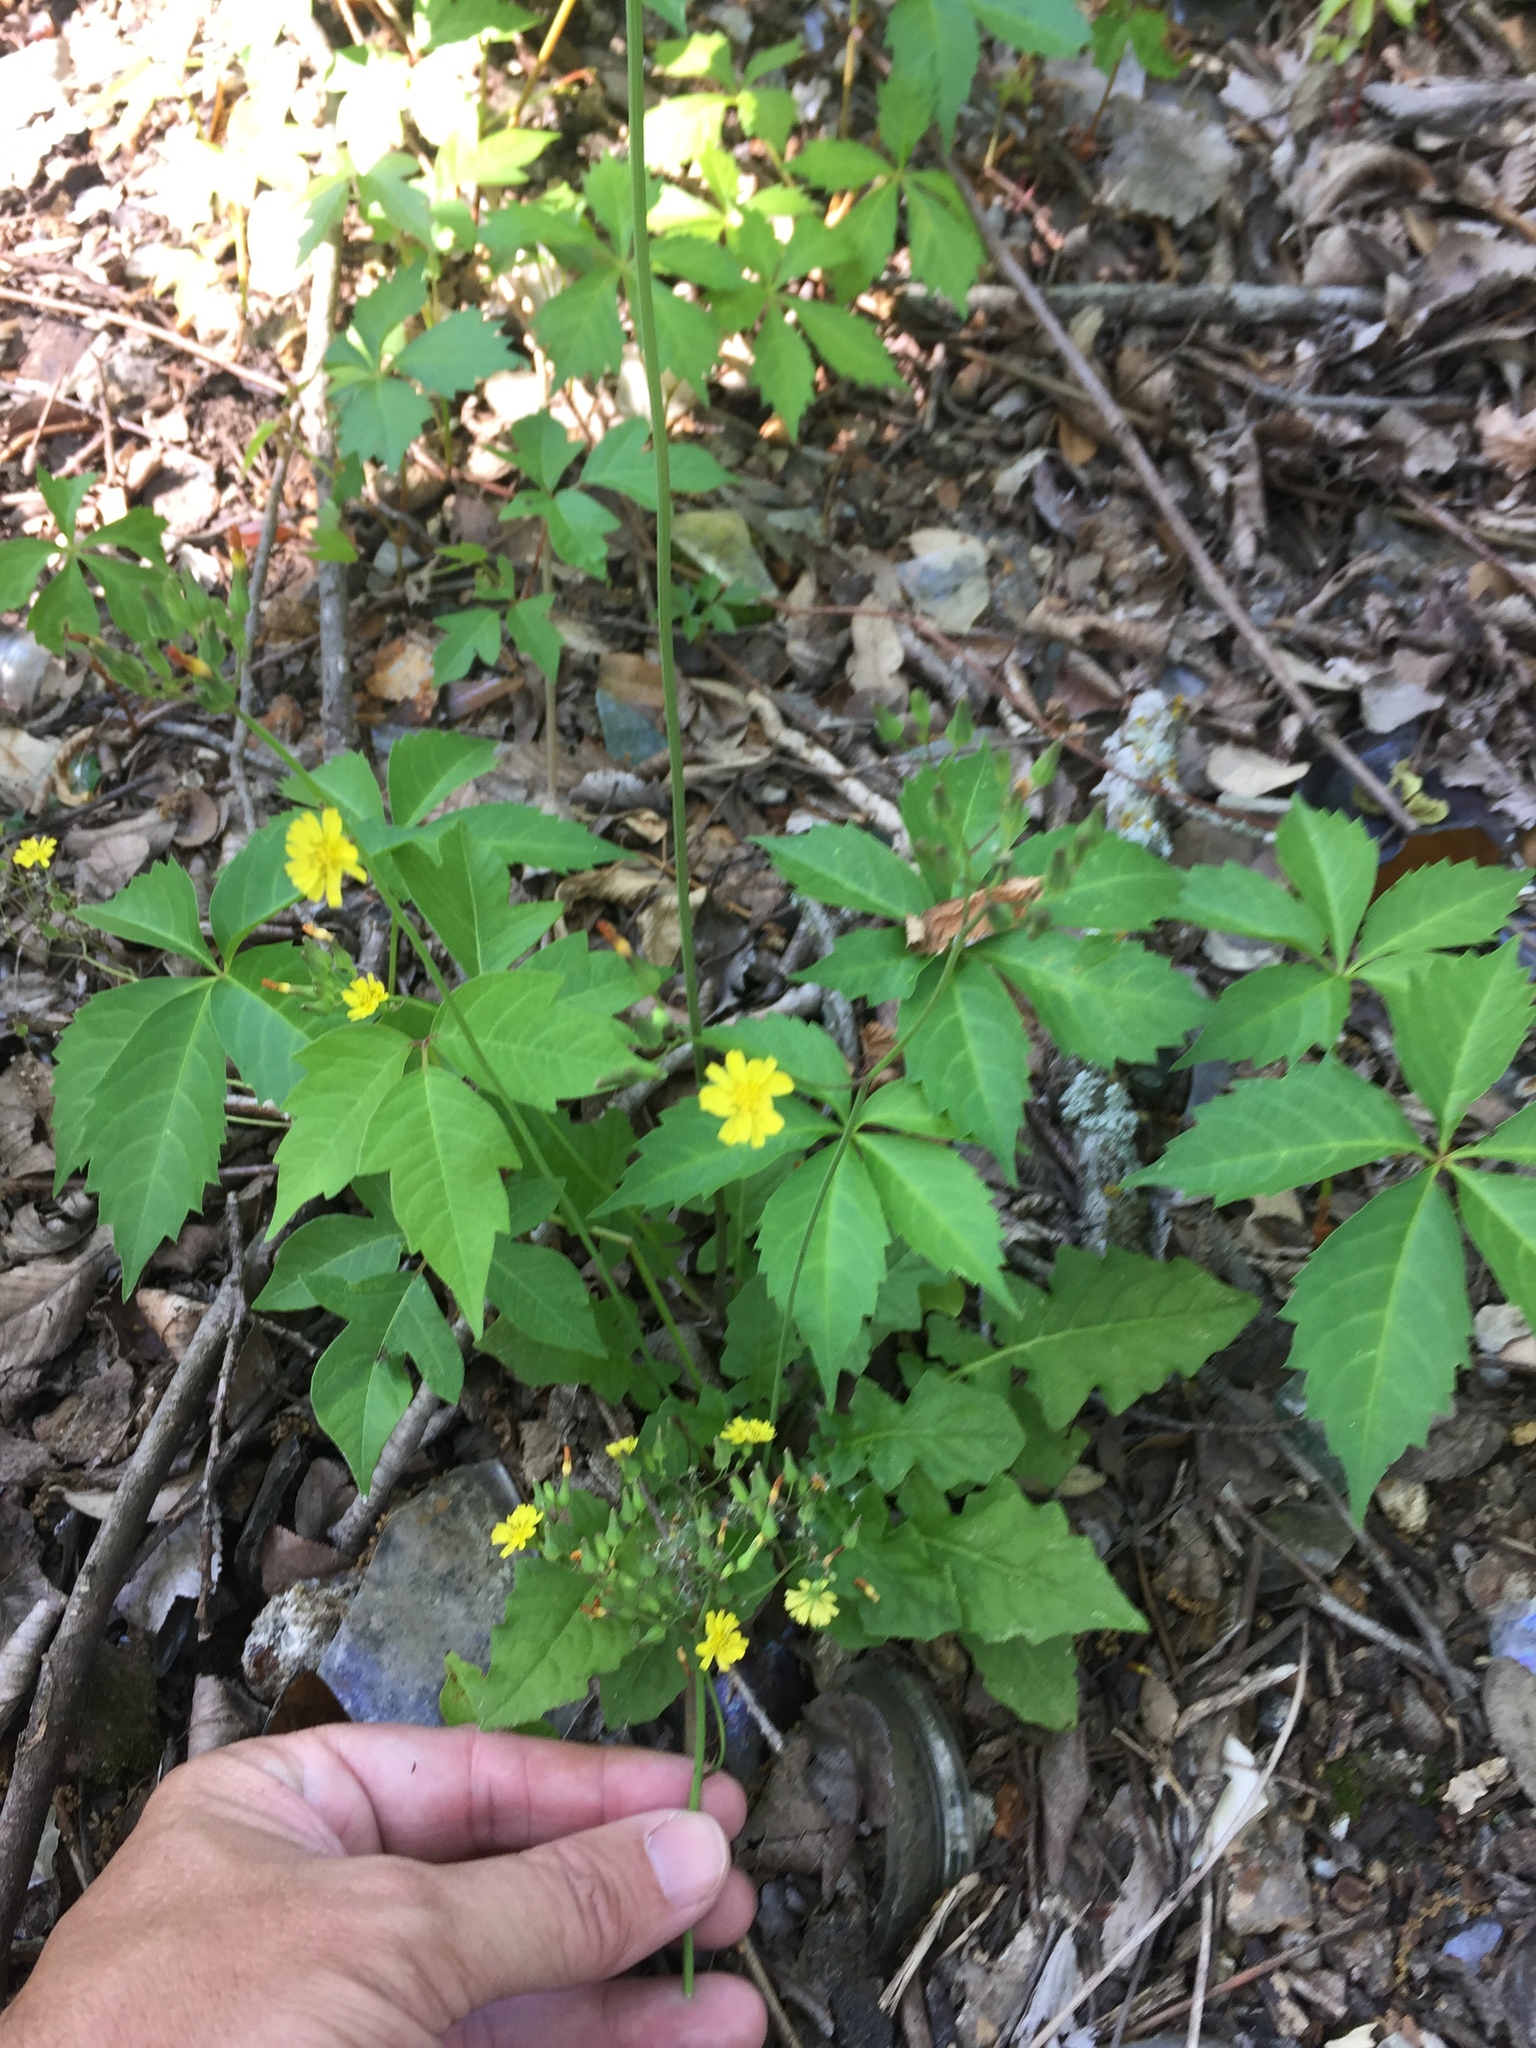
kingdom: Plantae
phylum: Tracheophyta
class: Magnoliopsida
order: Asterales
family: Asteraceae
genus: Youngia
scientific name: Youngia japonica
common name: Oriental false hawksbeard
